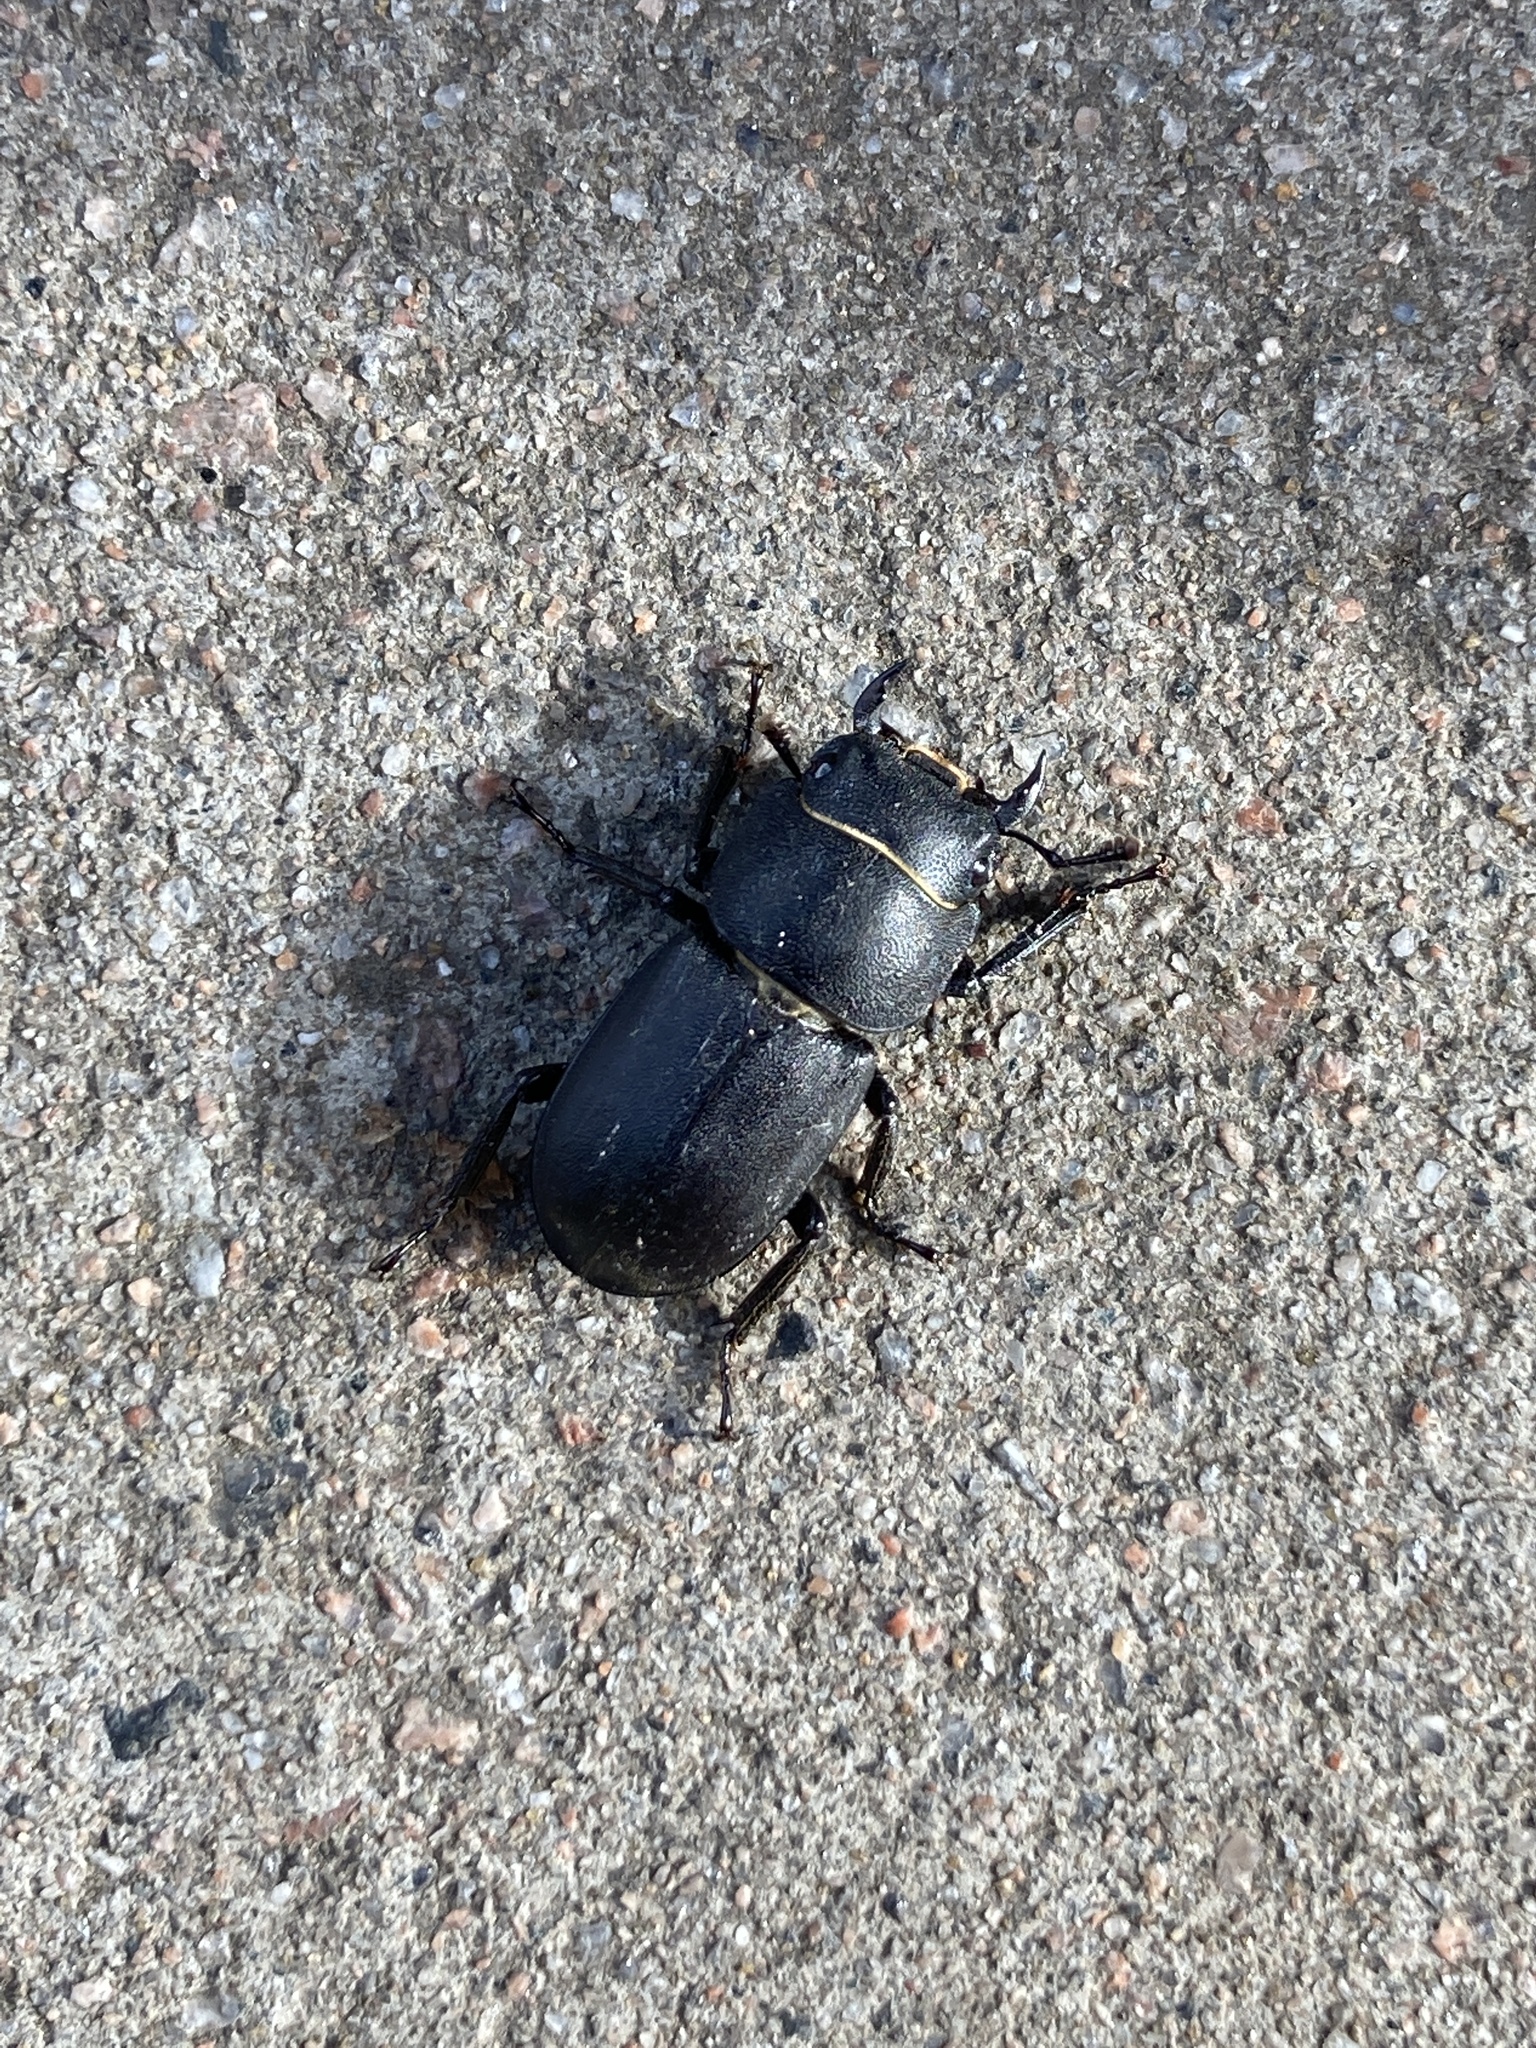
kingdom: Animalia
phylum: Arthropoda
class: Insecta
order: Coleoptera
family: Lucanidae
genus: Dorcus
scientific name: Dorcus parallelipipedus
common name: Lesser stag beetle
